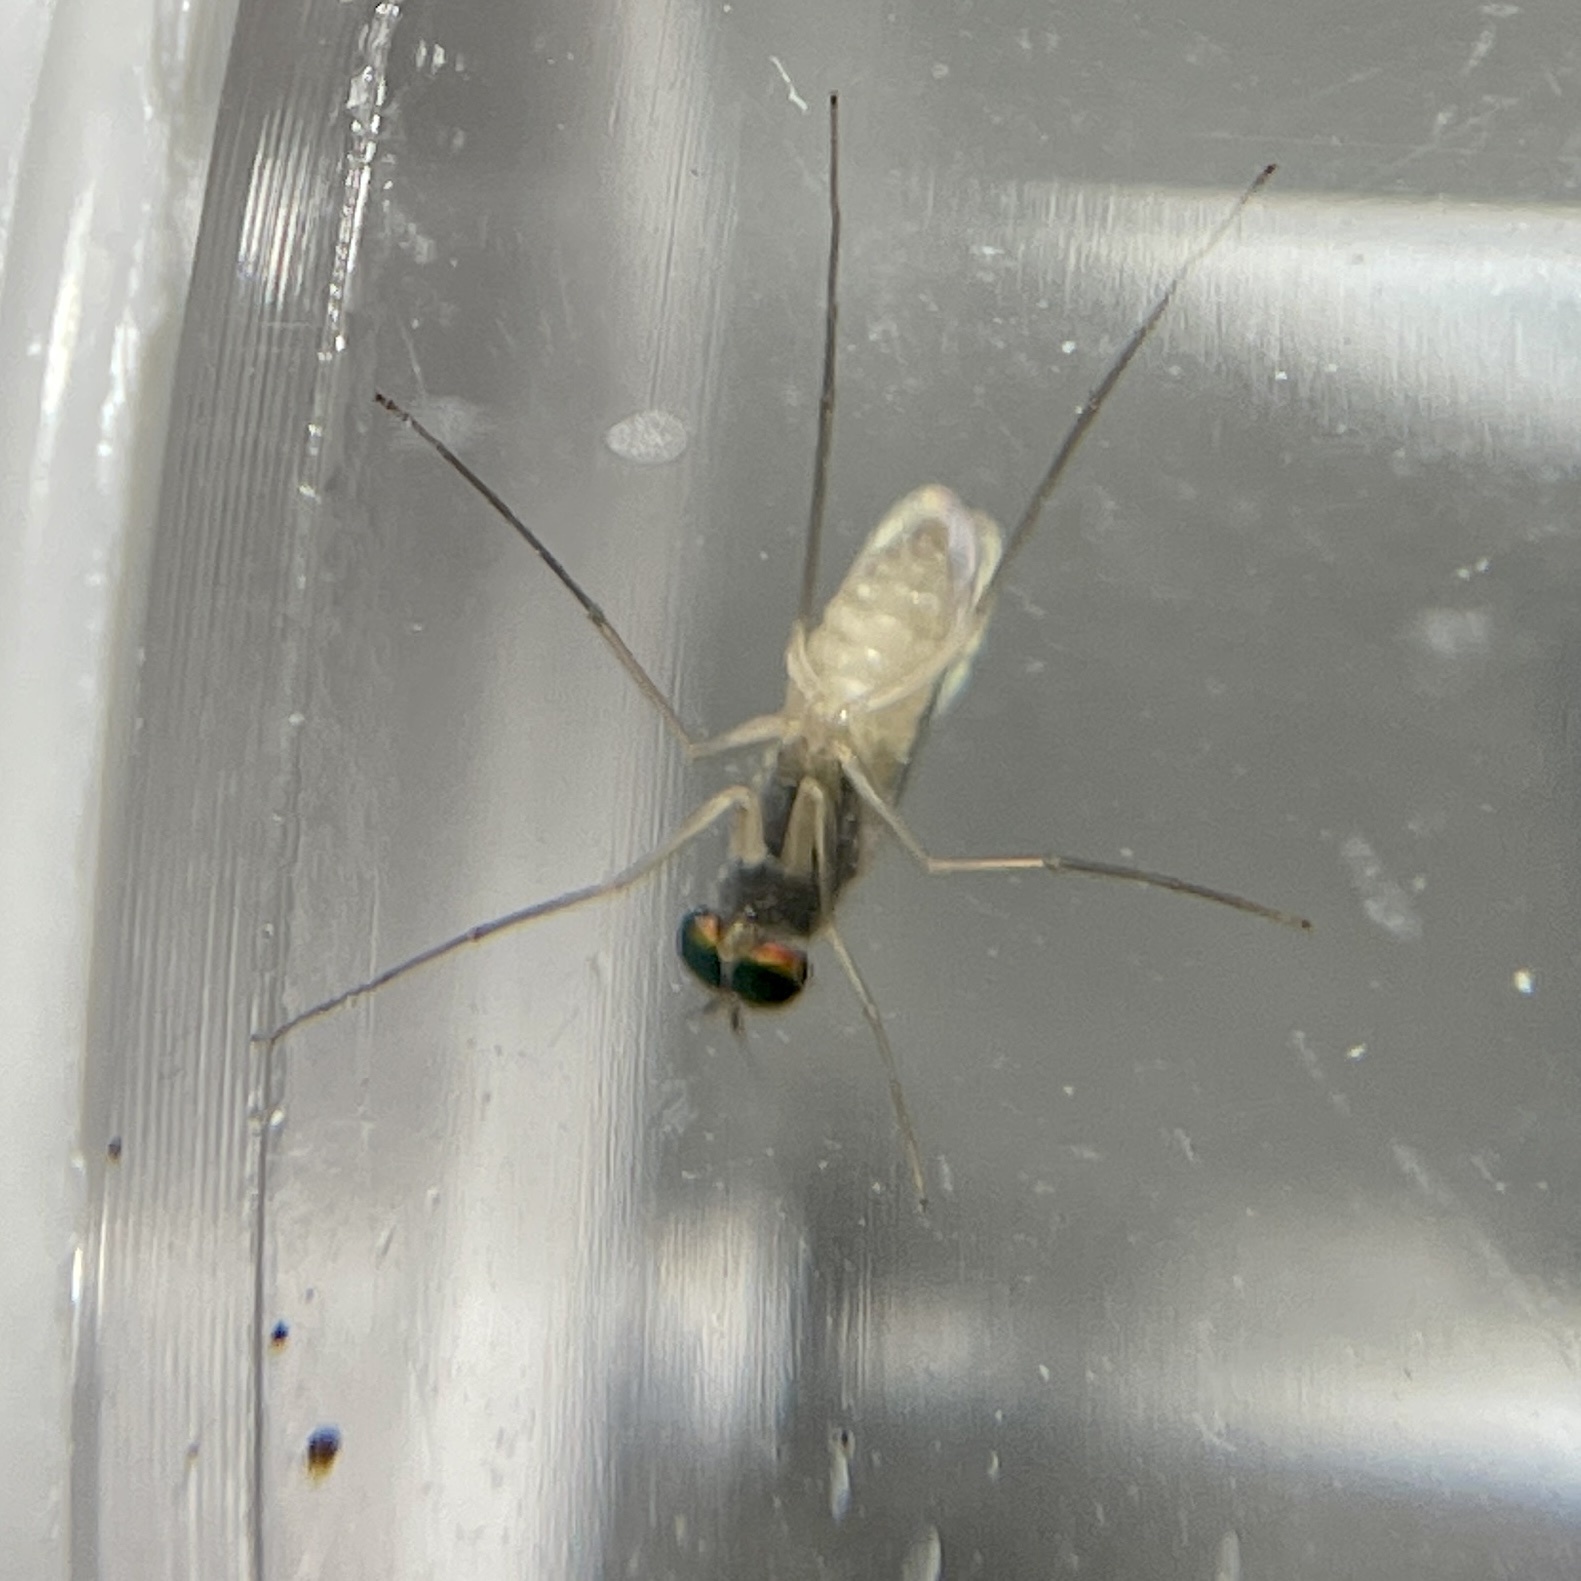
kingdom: Animalia
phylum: Arthropoda
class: Insecta
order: Diptera
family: Dolichopodidae
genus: Dactylomyia
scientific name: Dactylomyia lateralis
